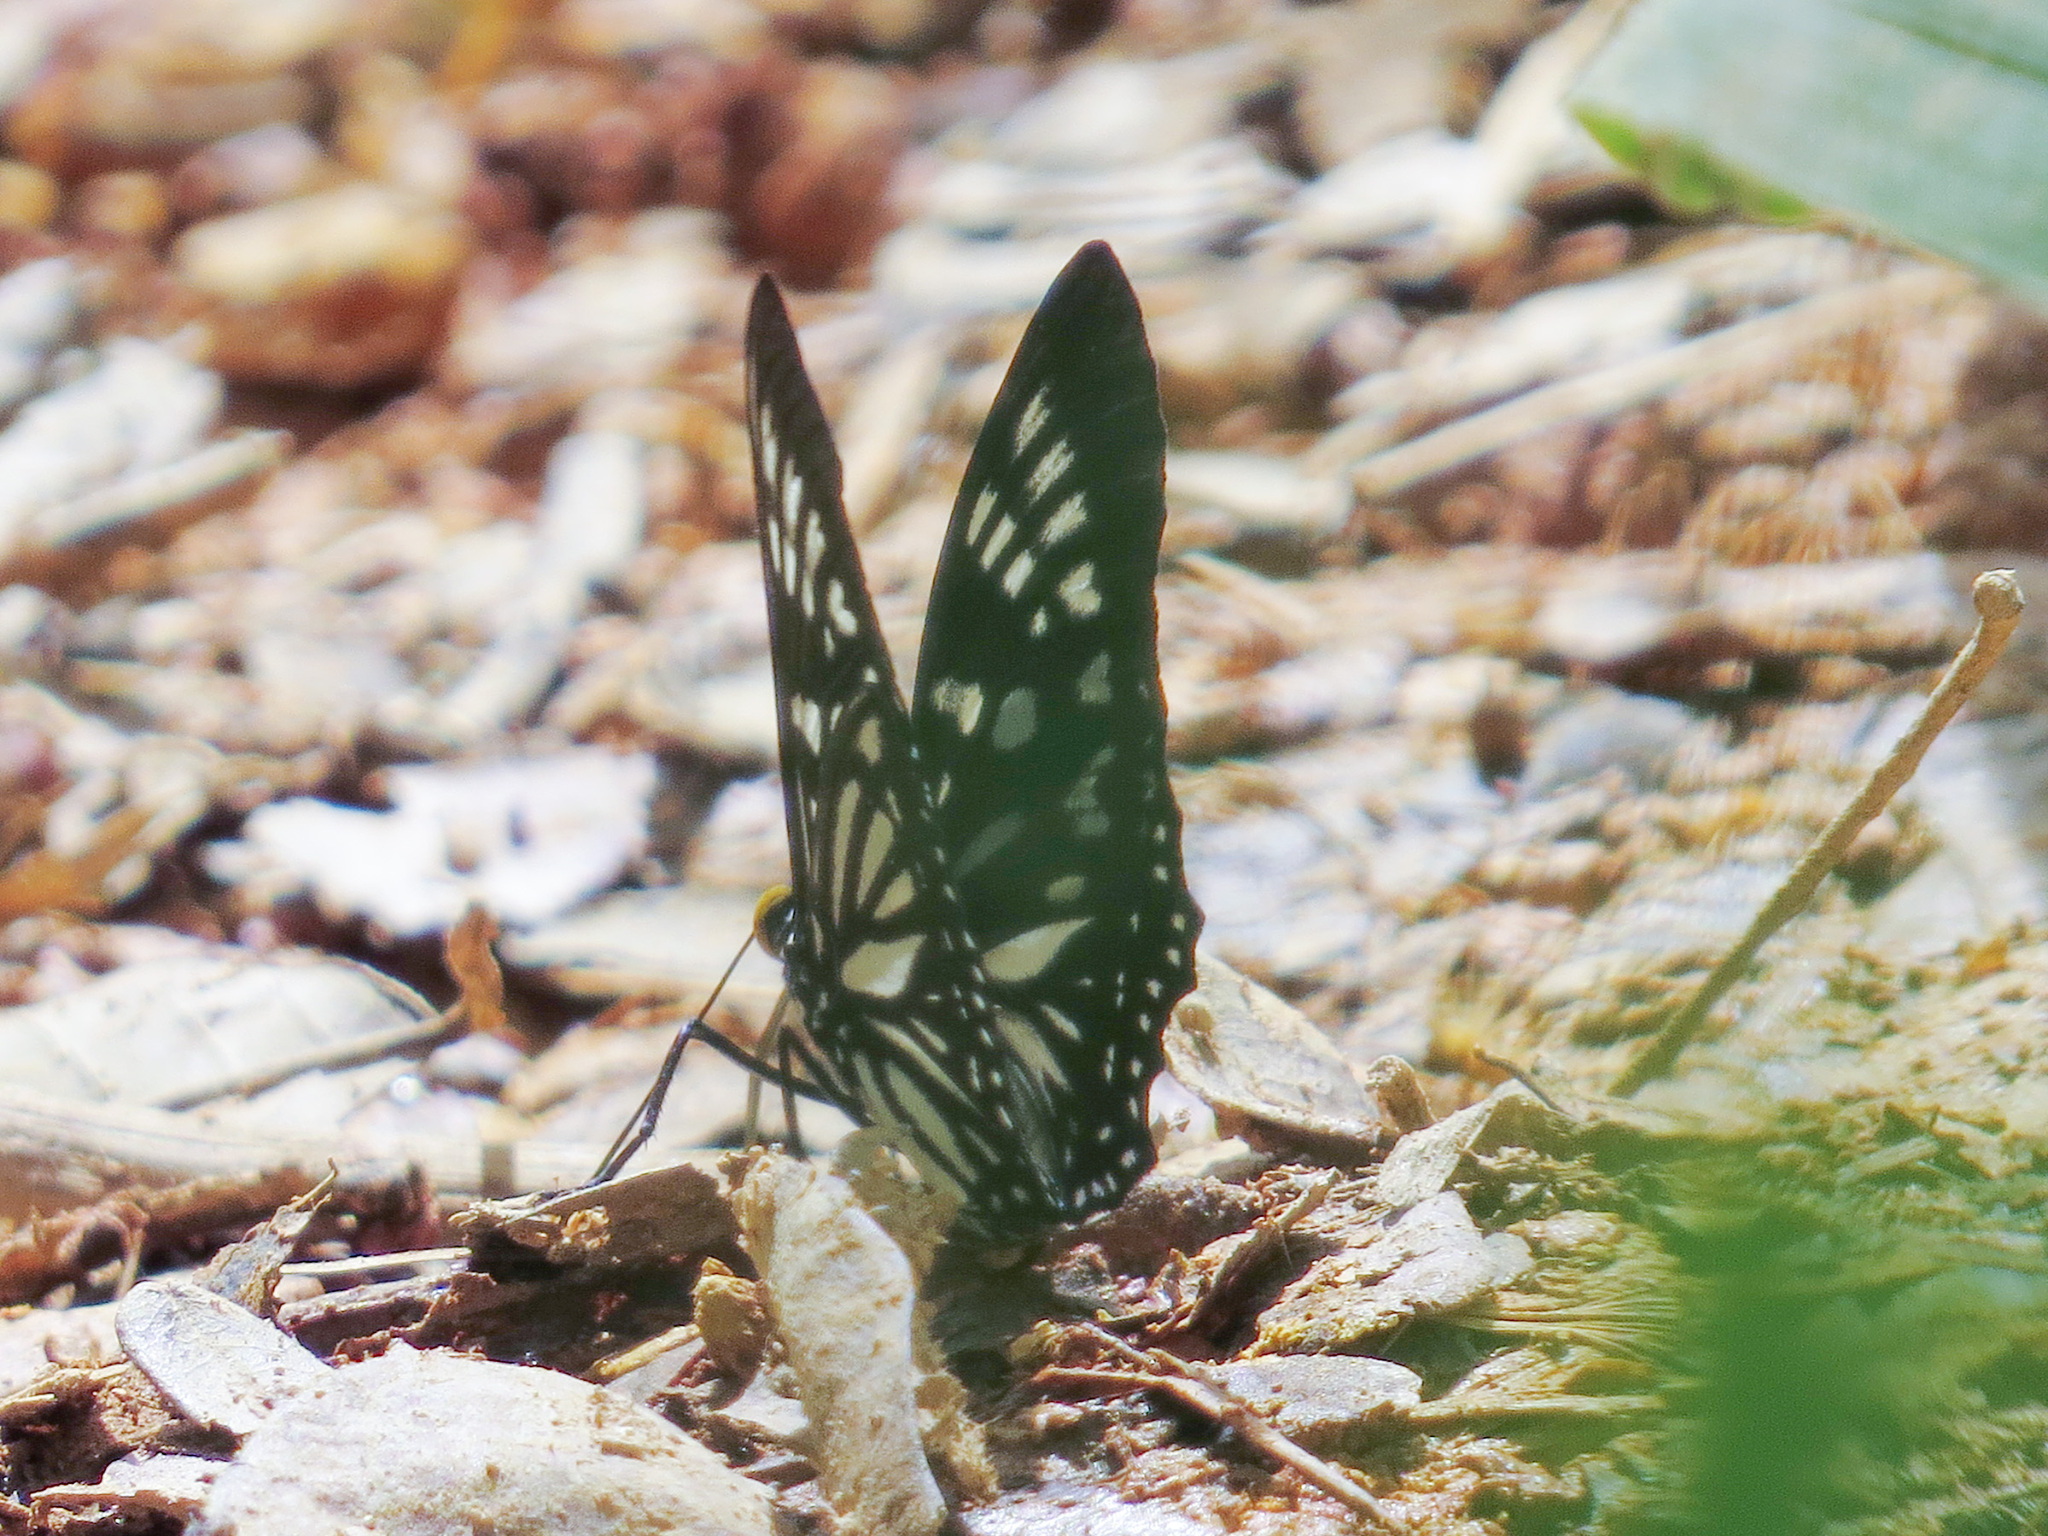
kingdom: Animalia
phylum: Arthropoda
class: Insecta
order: Lepidoptera
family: Nymphalidae
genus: Euripus
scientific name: Euripus nyctelius
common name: Courtesan
